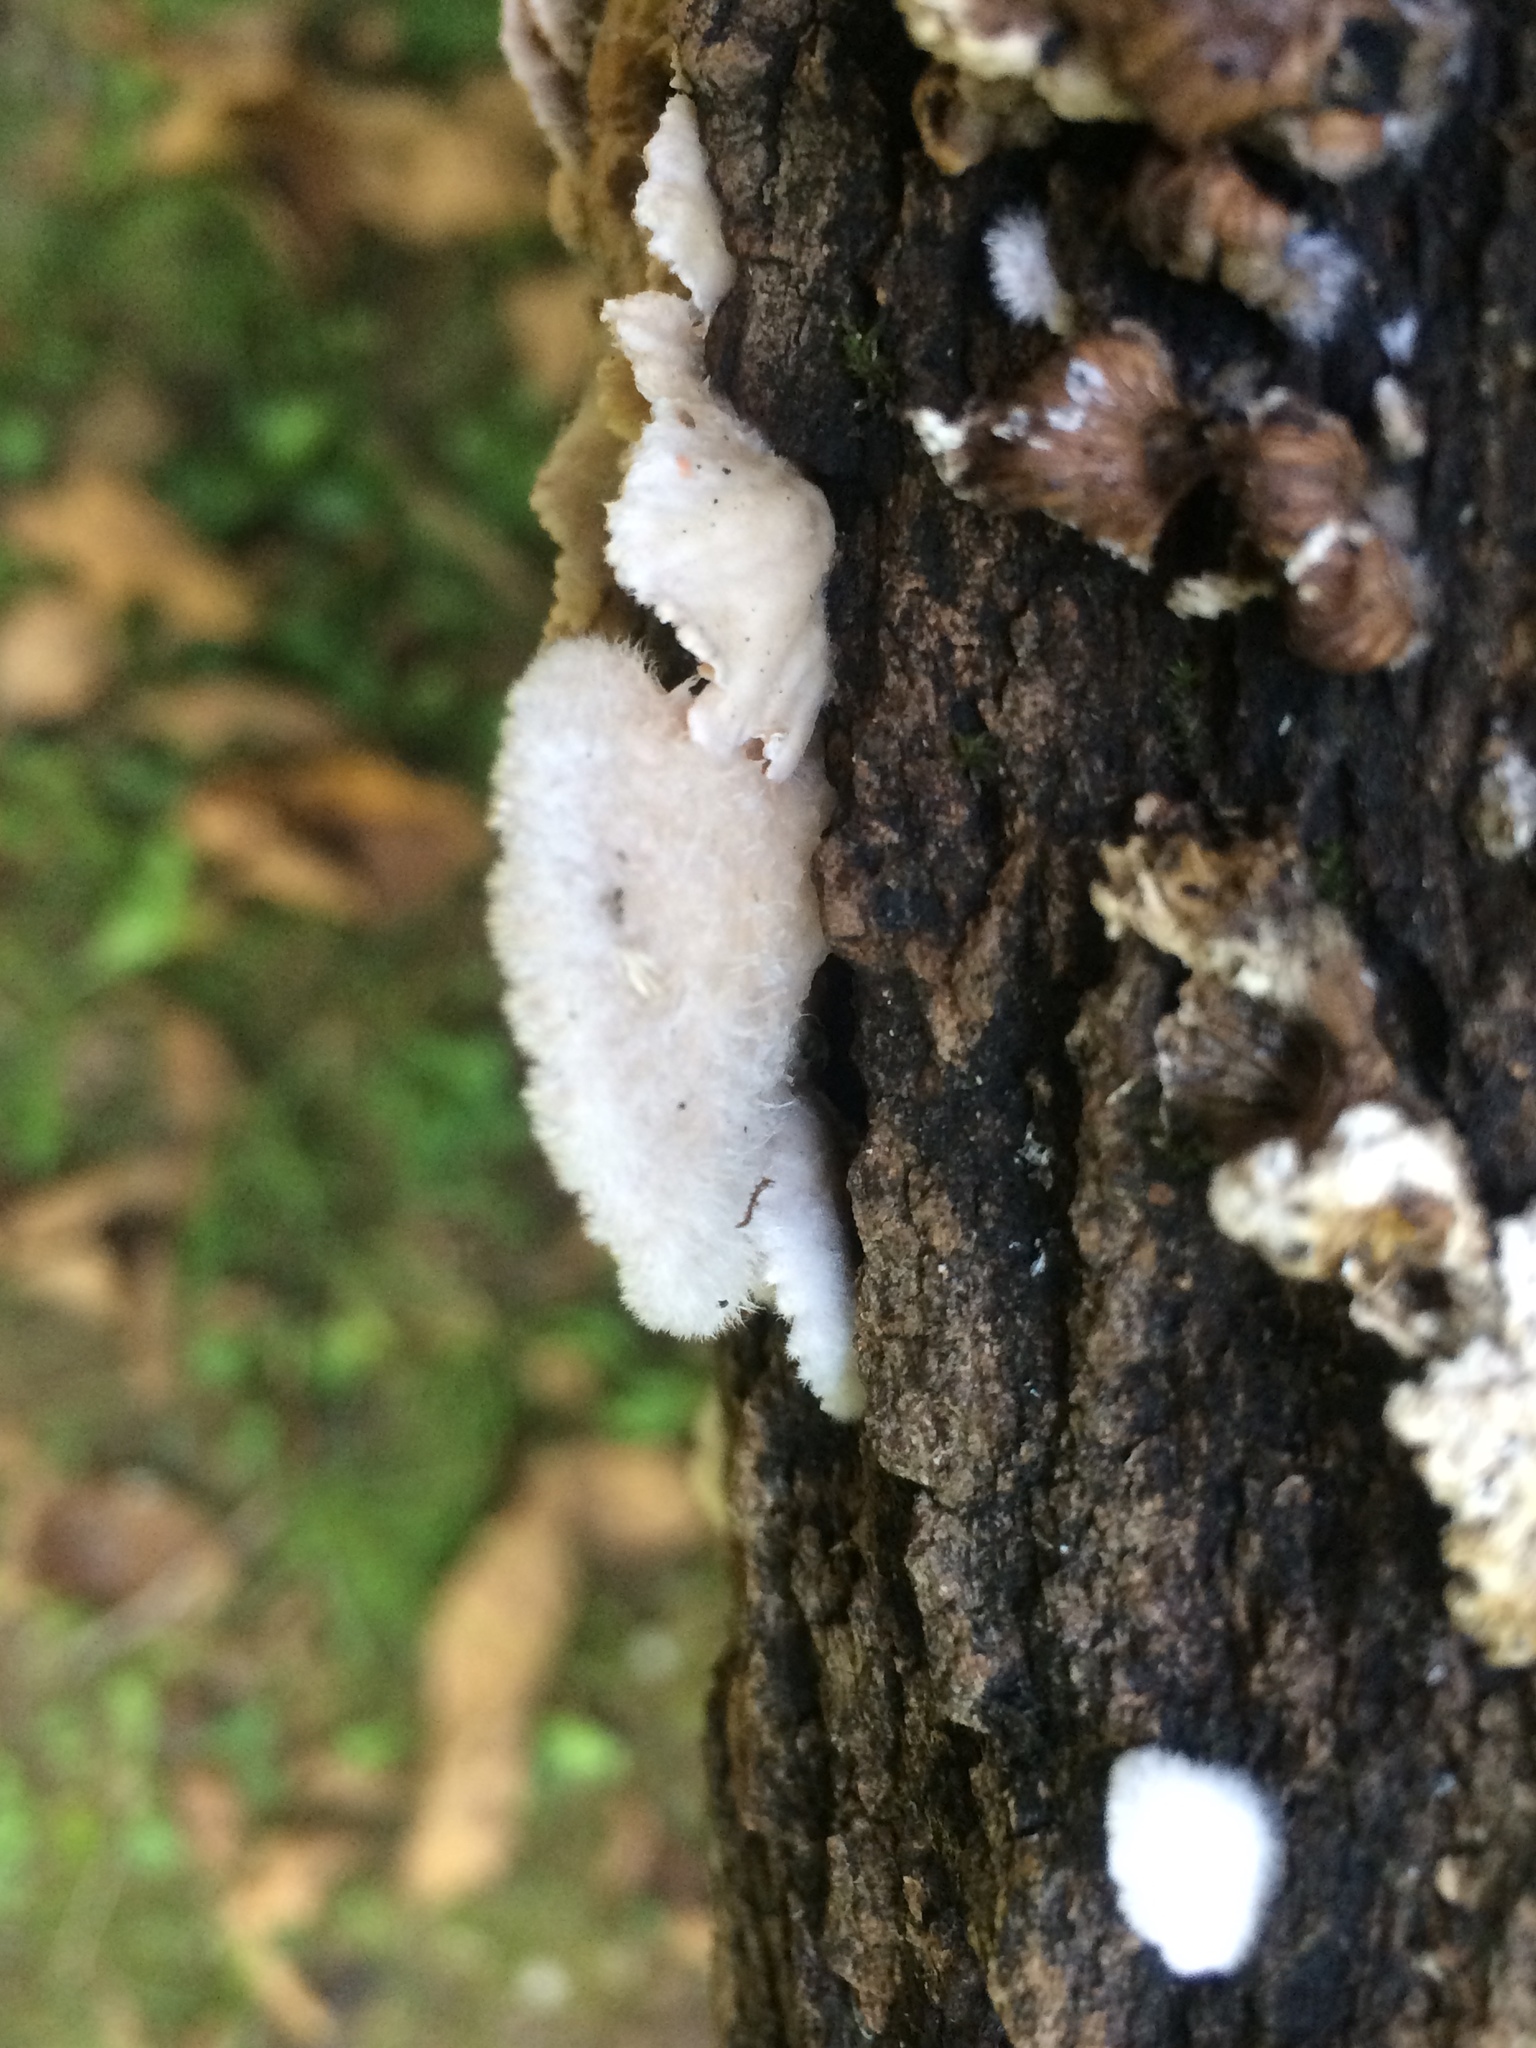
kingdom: Fungi
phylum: Basidiomycota
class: Agaricomycetes
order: Agaricales
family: Schizophyllaceae
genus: Schizophyllum
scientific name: Schizophyllum commune
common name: Common porecrust
